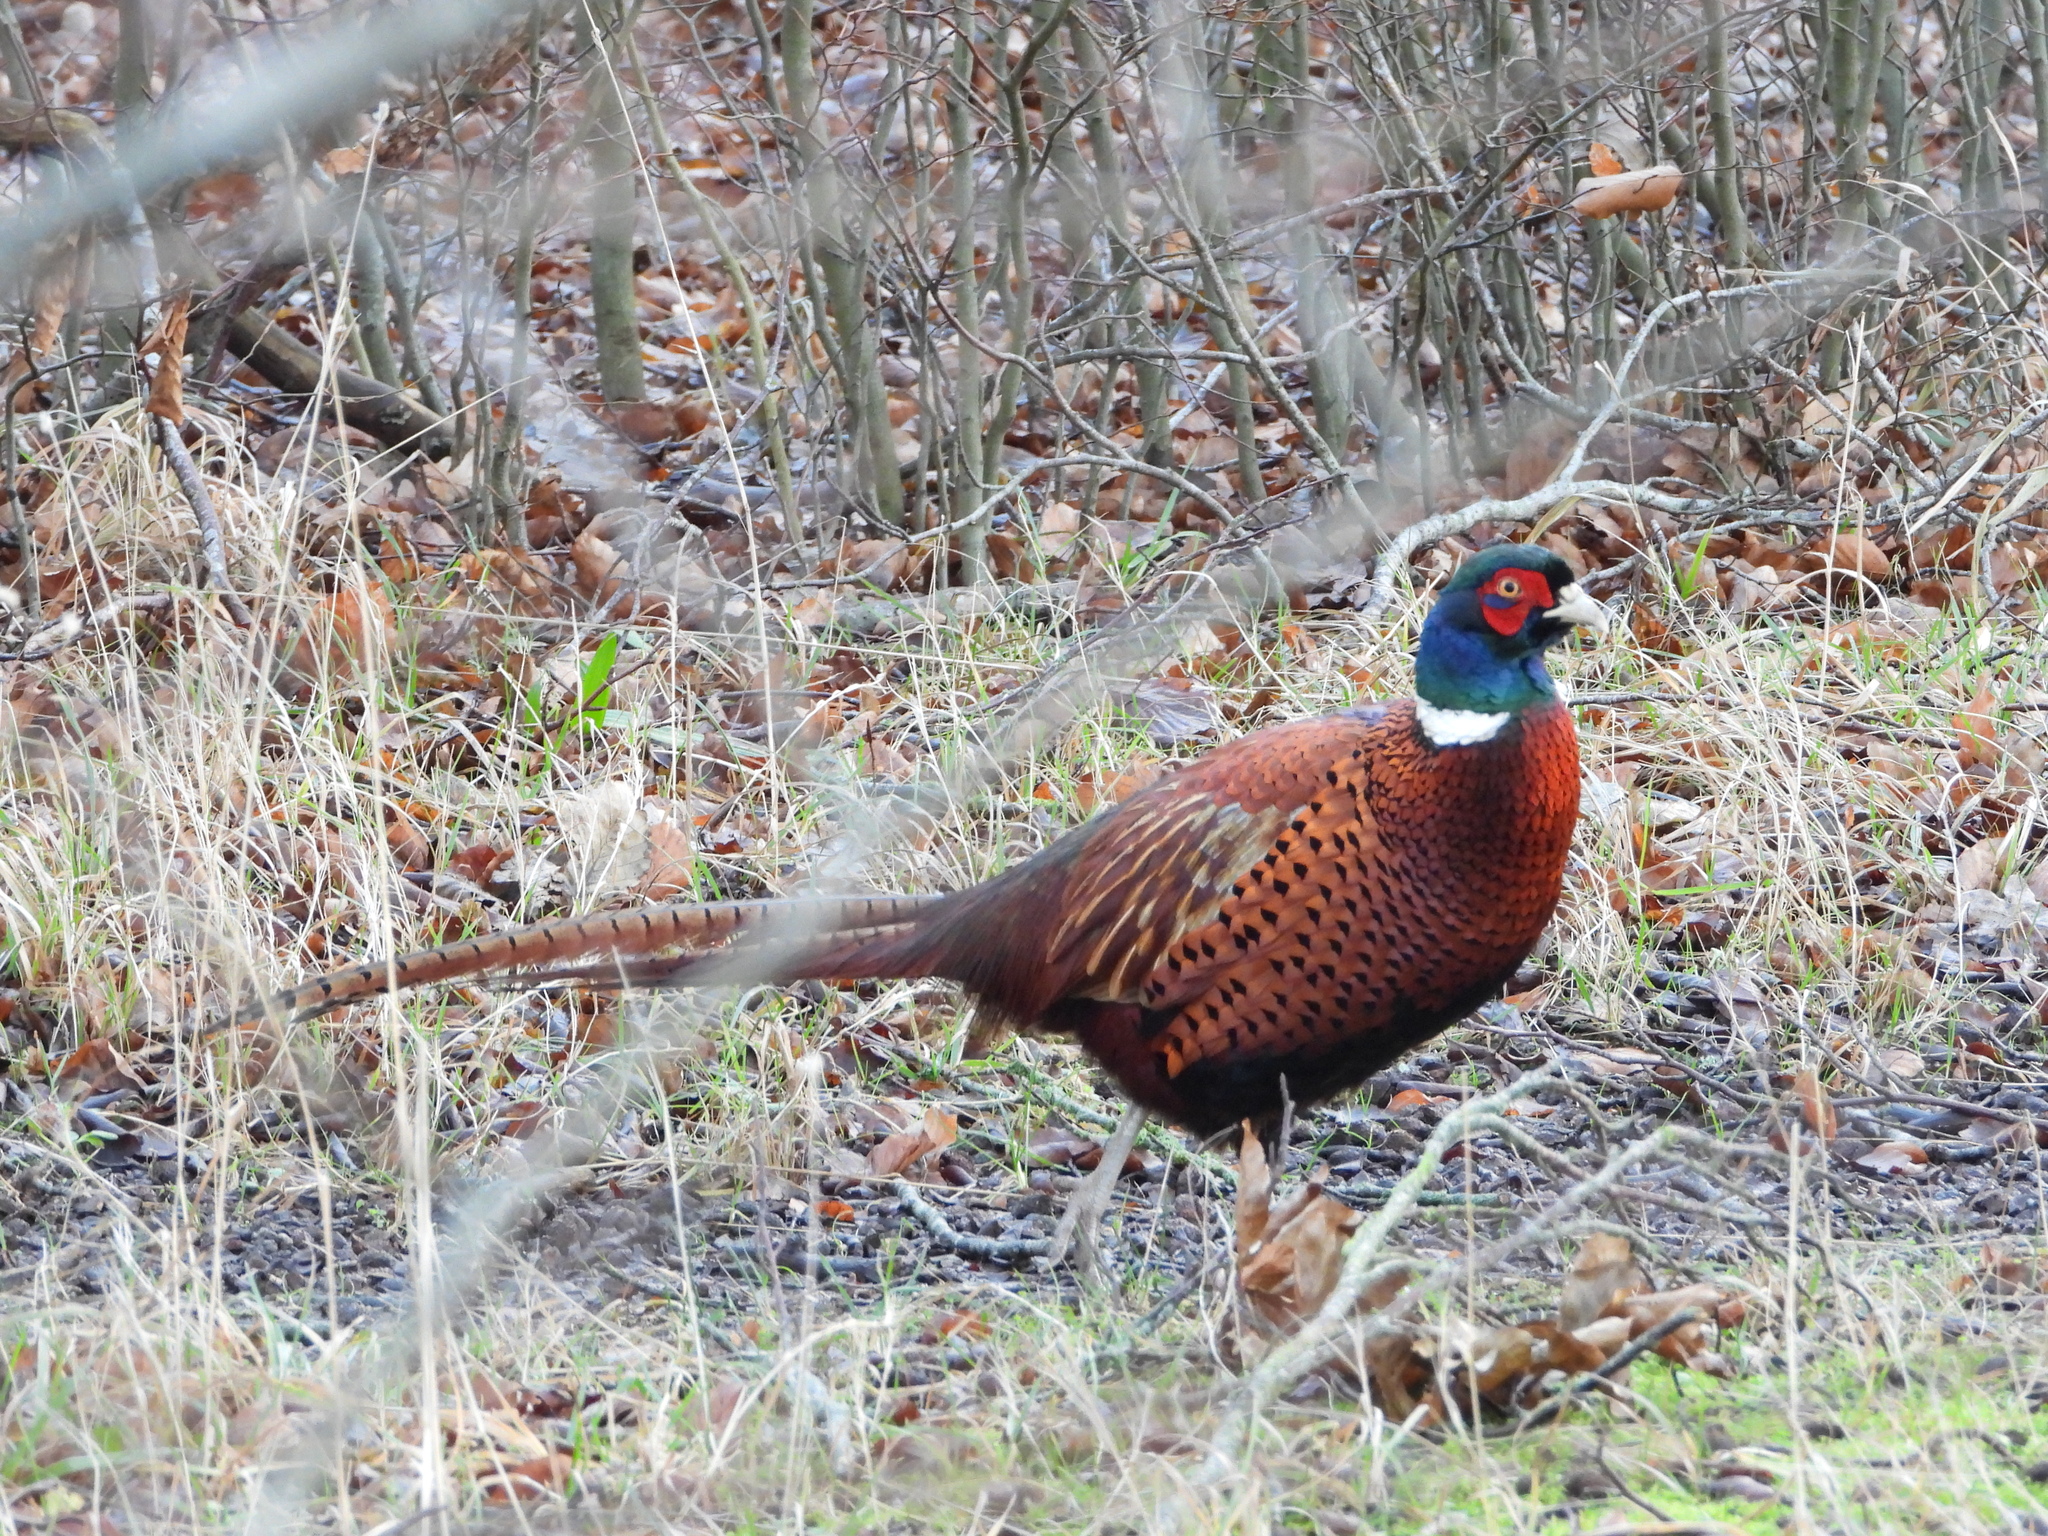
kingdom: Animalia
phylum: Chordata
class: Aves
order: Galliformes
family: Phasianidae
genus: Phasianus
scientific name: Phasianus colchicus
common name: Common pheasant
